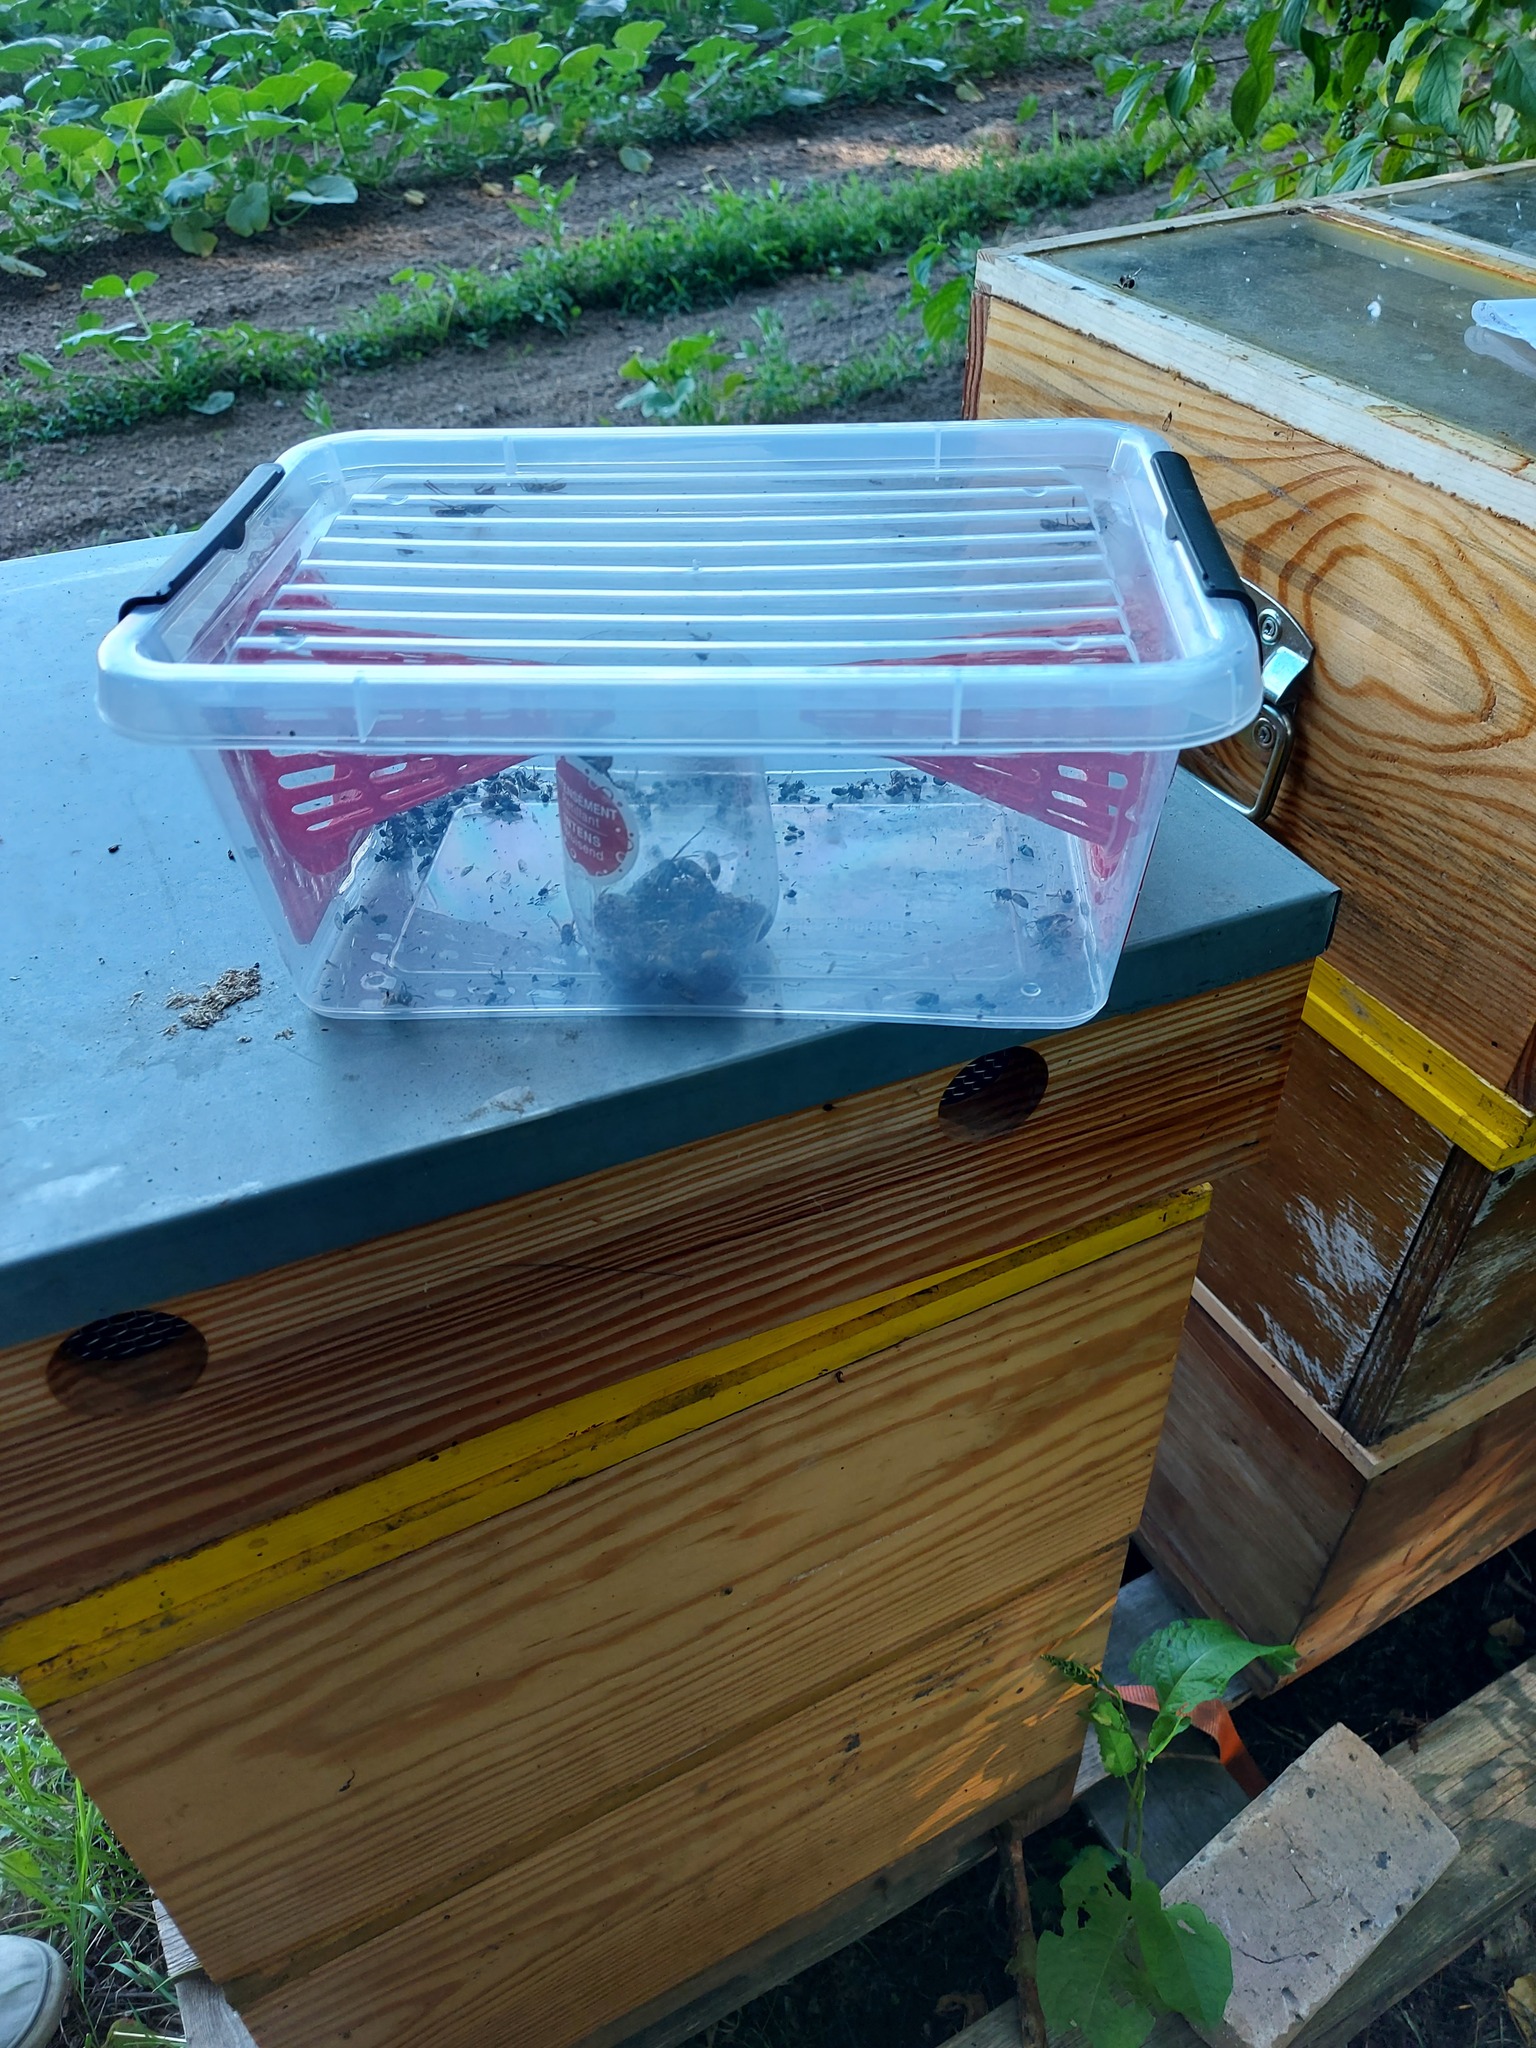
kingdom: Animalia
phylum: Arthropoda
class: Insecta
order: Hymenoptera
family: Vespidae
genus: Vespa
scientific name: Vespa velutina
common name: Asian hornet
